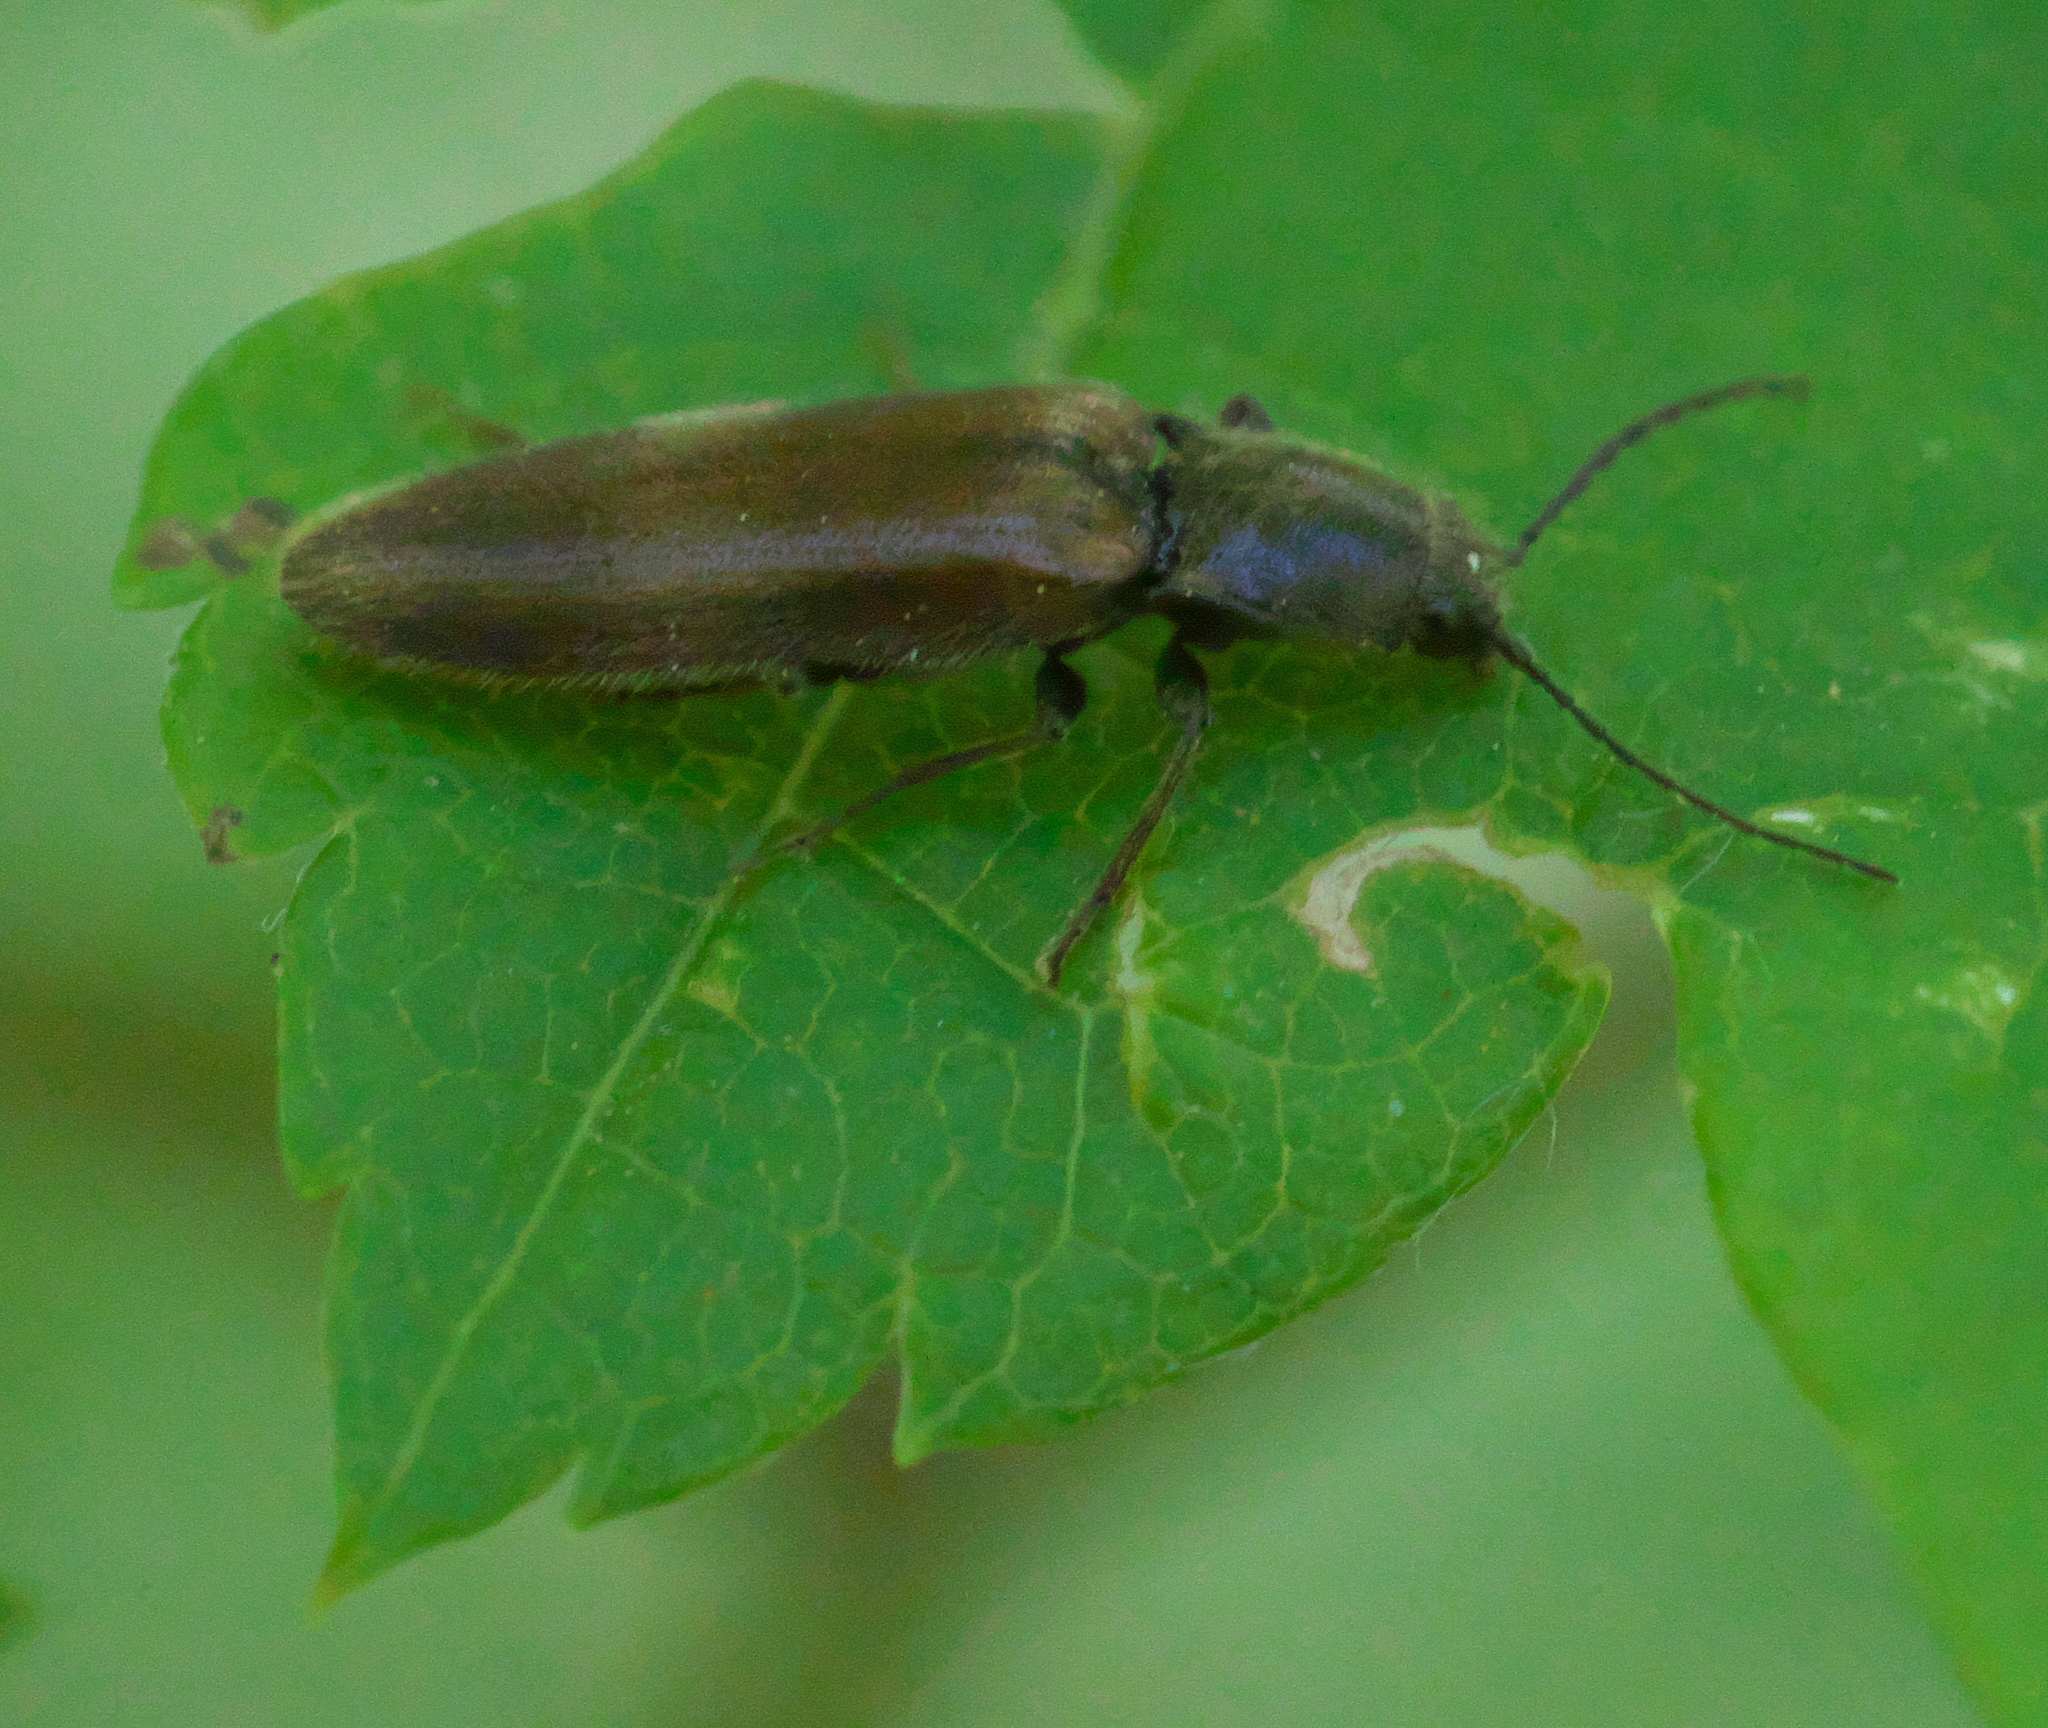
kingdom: Animalia
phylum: Arthropoda
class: Insecta
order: Coleoptera
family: Elateridae
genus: Hemicrepidius
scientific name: Hemicrepidius pallidipennis
